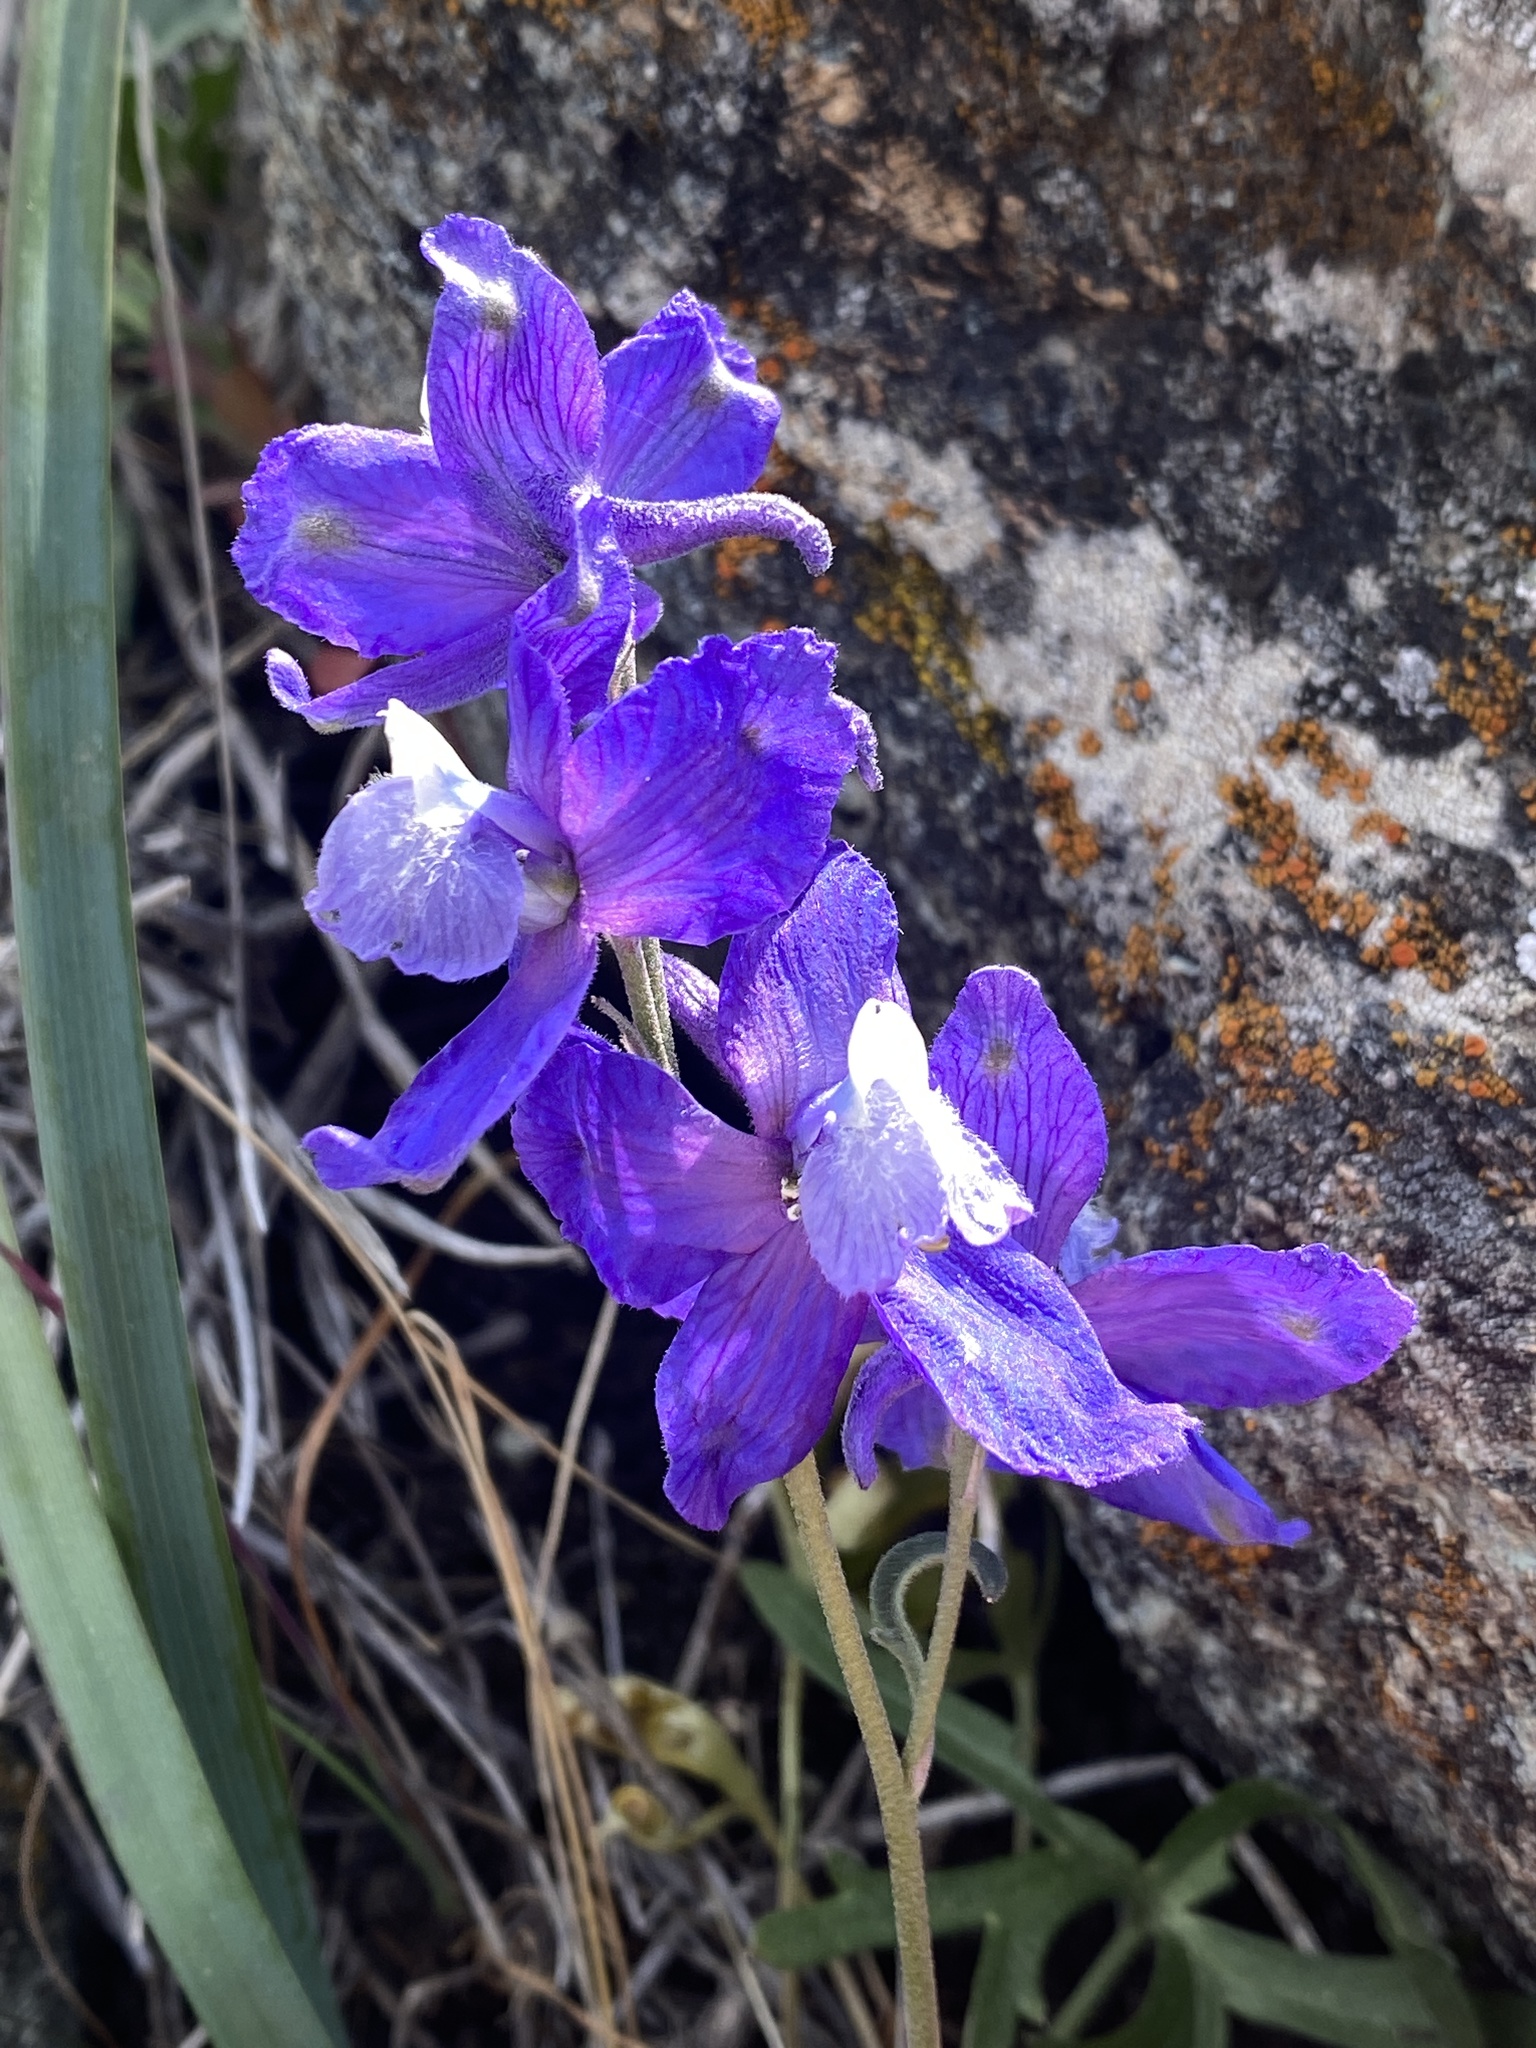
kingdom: Plantae
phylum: Tracheophyta
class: Magnoliopsida
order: Ranunculales
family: Ranunculaceae
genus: Delphinium
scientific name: Delphinium parryi
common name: Parry's larkspur
